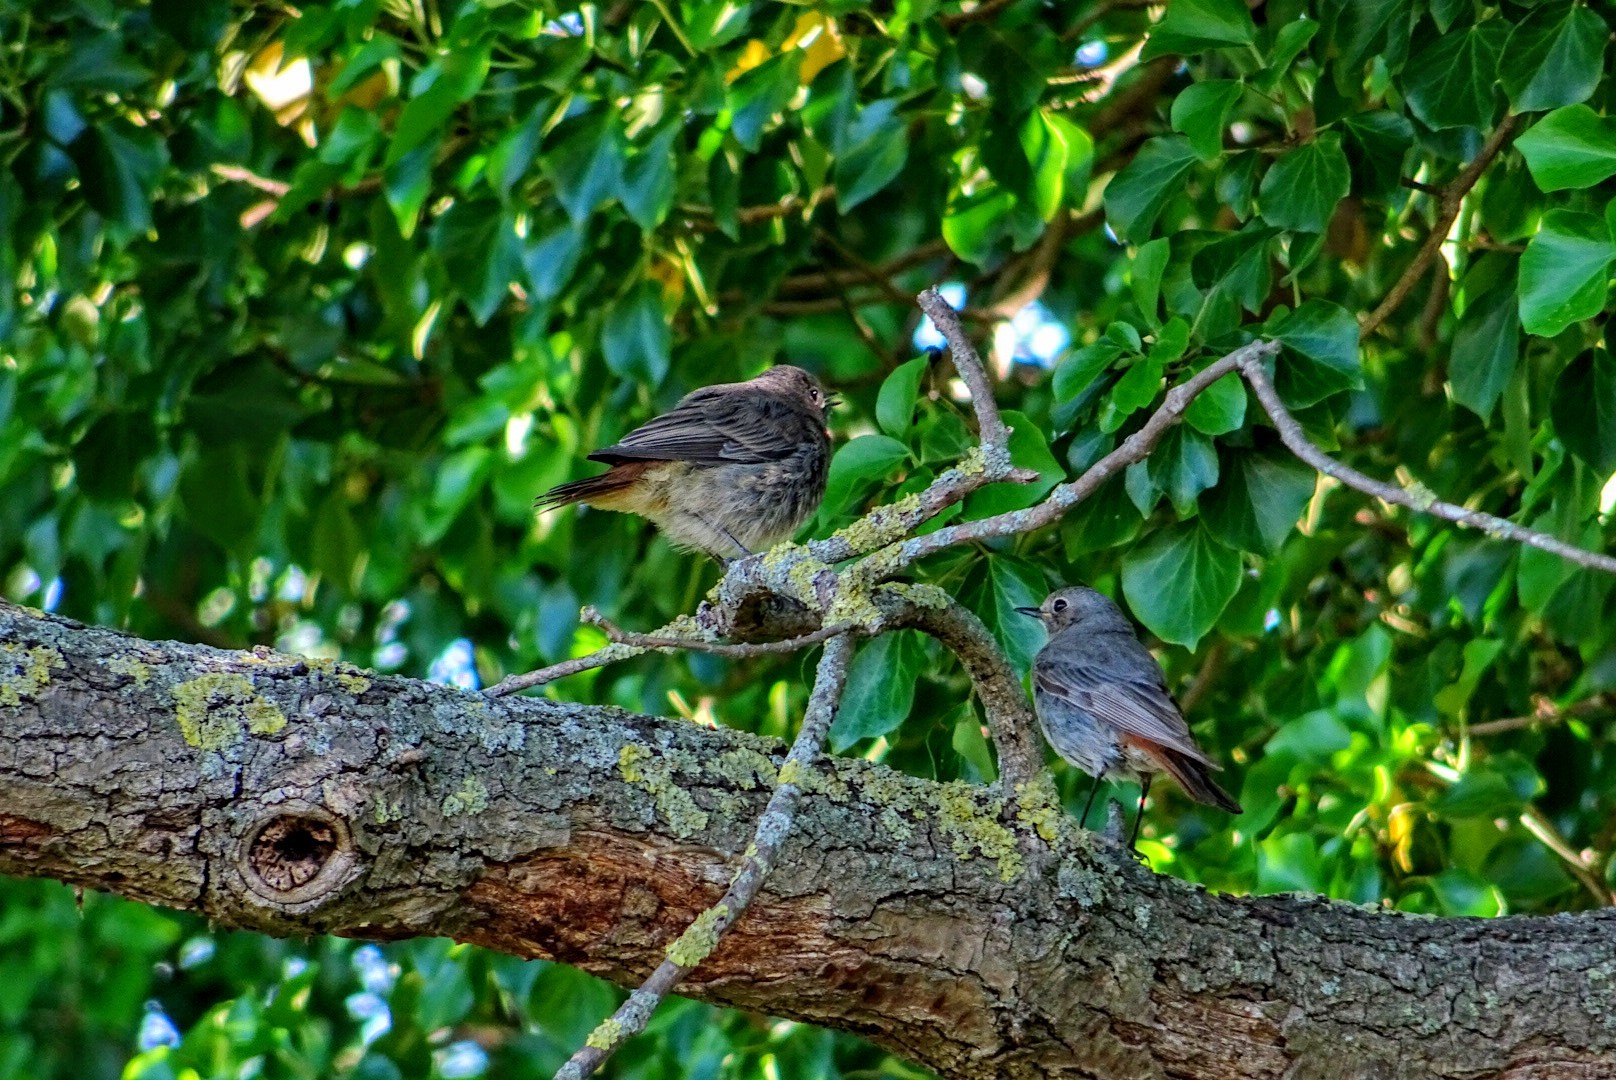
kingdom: Animalia
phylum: Chordata
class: Aves
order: Passeriformes
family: Muscicapidae
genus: Phoenicurus
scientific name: Phoenicurus ochruros
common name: Black redstart
